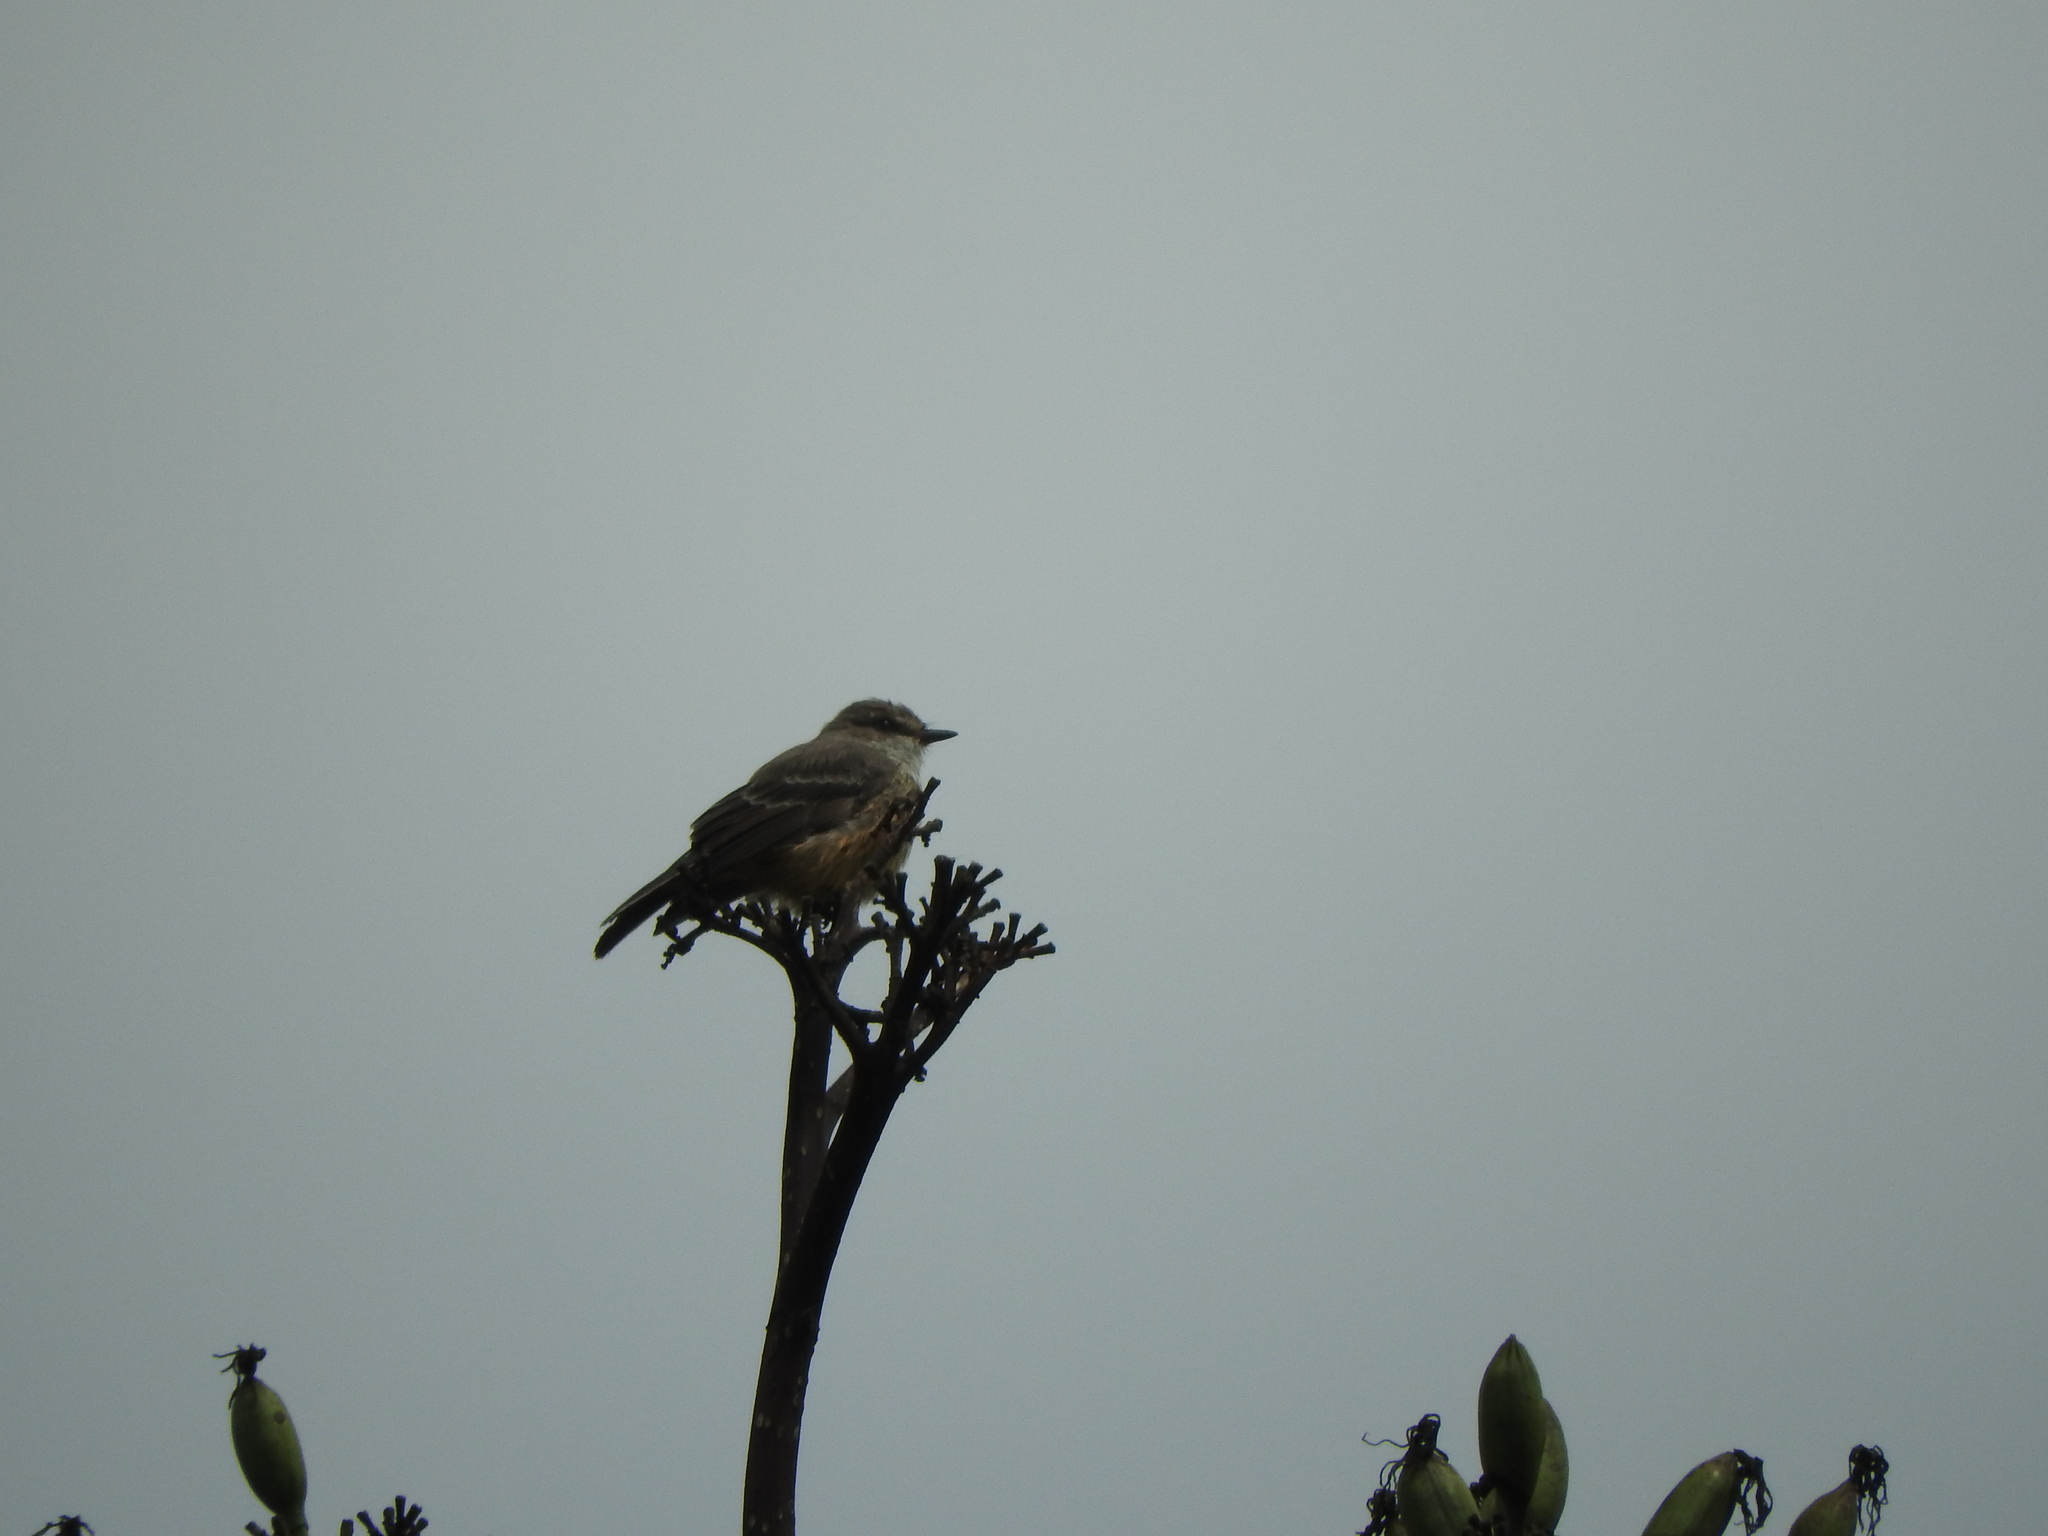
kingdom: Animalia
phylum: Chordata
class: Aves
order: Passeriformes
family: Tyrannidae
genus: Pyrocephalus
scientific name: Pyrocephalus rubinus
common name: Vermilion flycatcher
